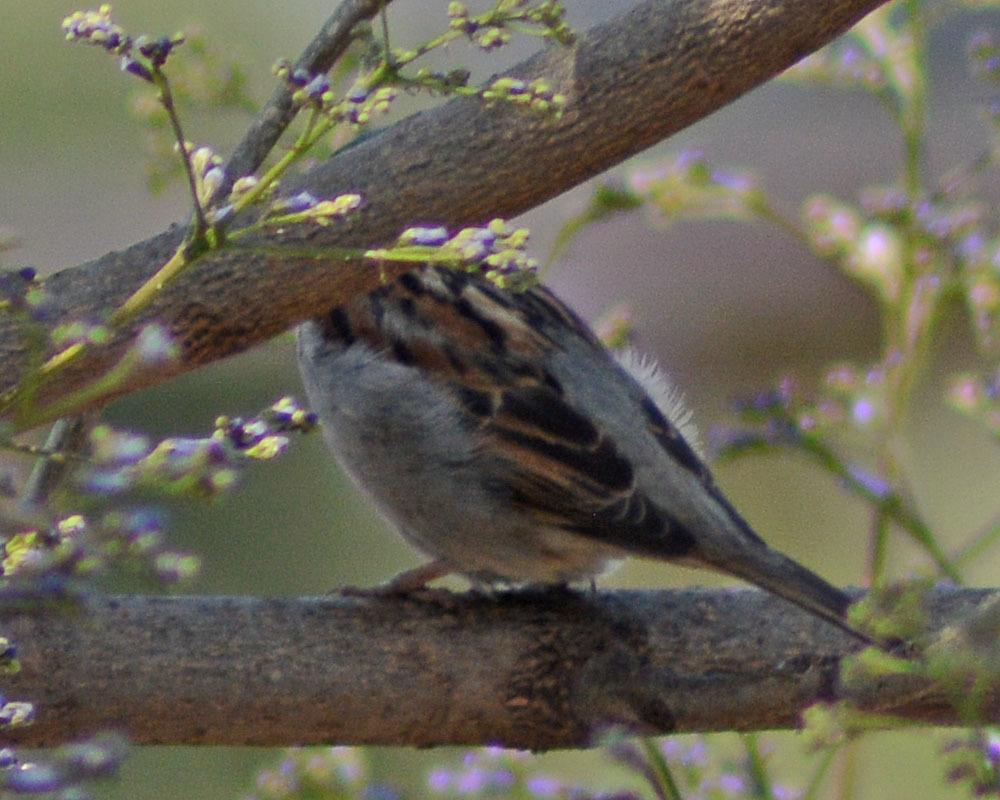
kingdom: Animalia
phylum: Chordata
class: Aves
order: Passeriformes
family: Passeridae
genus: Passer
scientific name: Passer domesticus
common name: House sparrow
